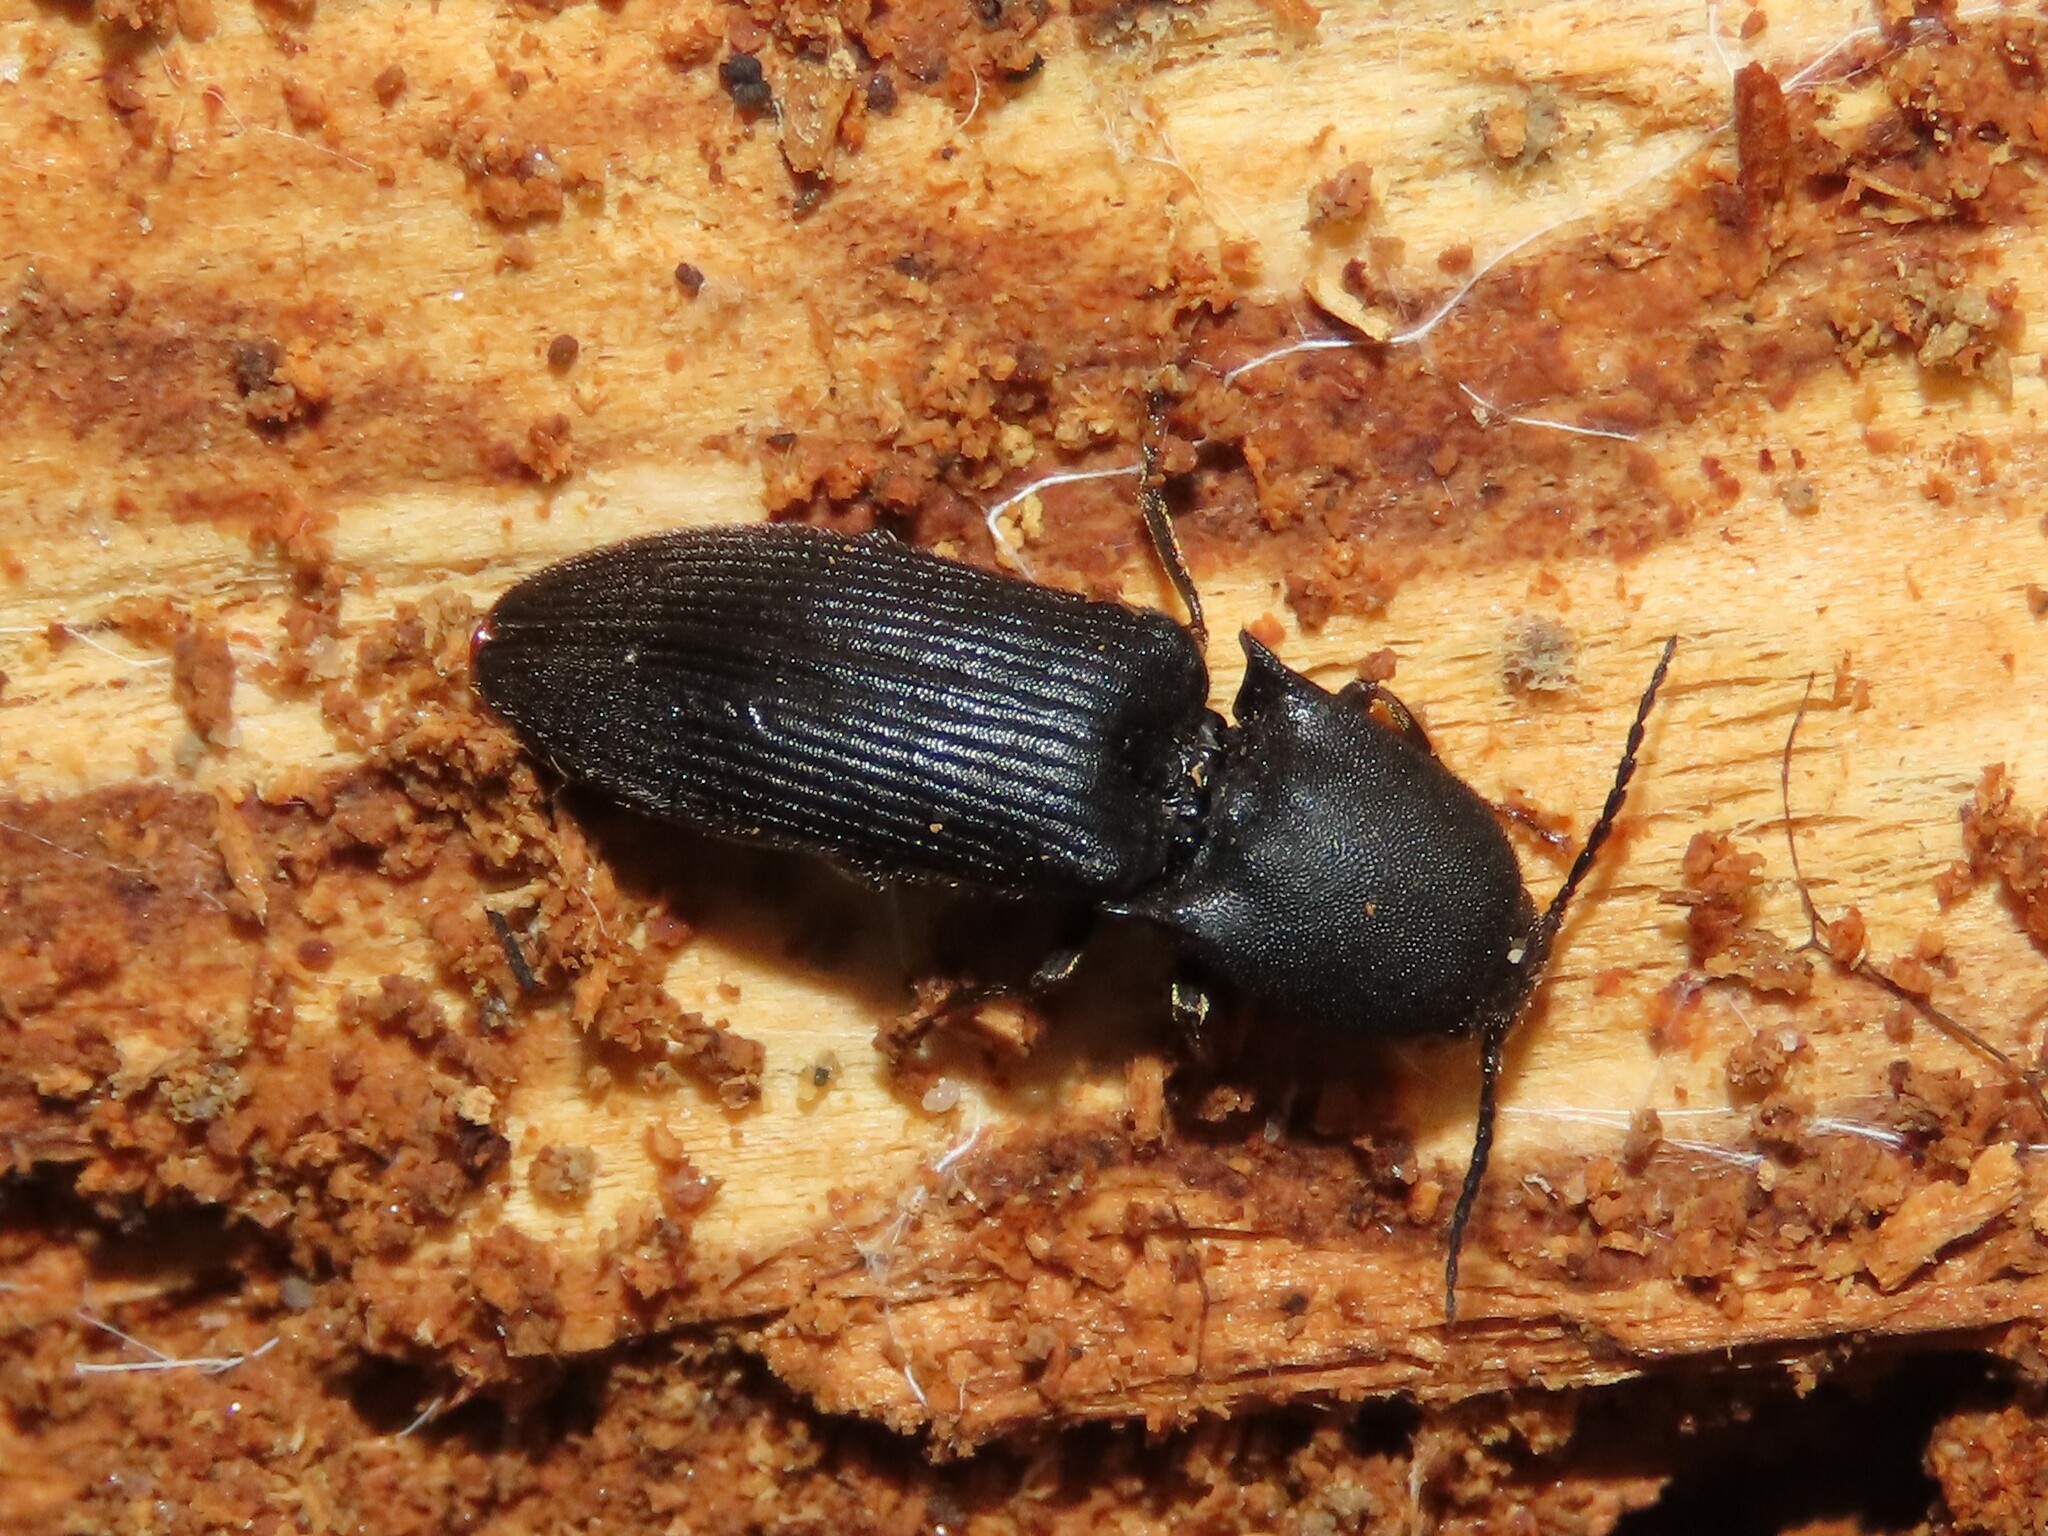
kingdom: Animalia
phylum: Arthropoda
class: Insecta
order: Coleoptera
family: Elateridae
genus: Megapenthes
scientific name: Megapenthes
